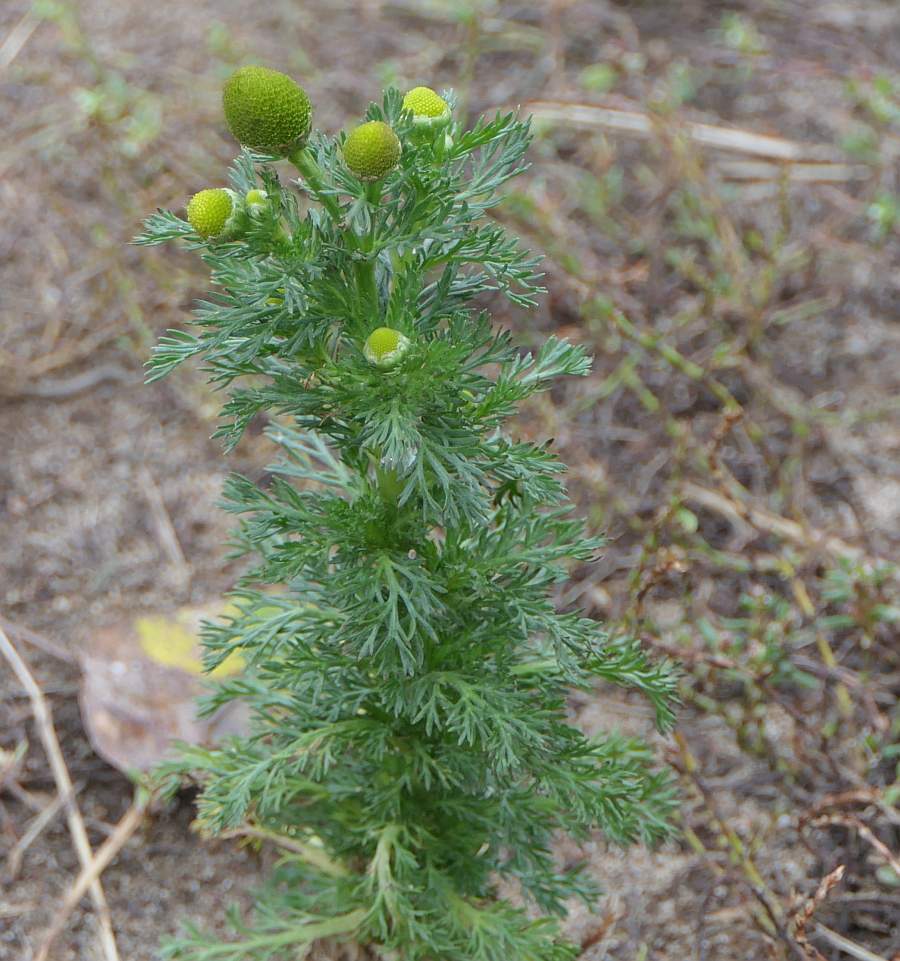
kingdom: Plantae
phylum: Tracheophyta
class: Magnoliopsida
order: Asterales
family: Asteraceae
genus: Matricaria
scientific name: Matricaria discoidea
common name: Disc mayweed
